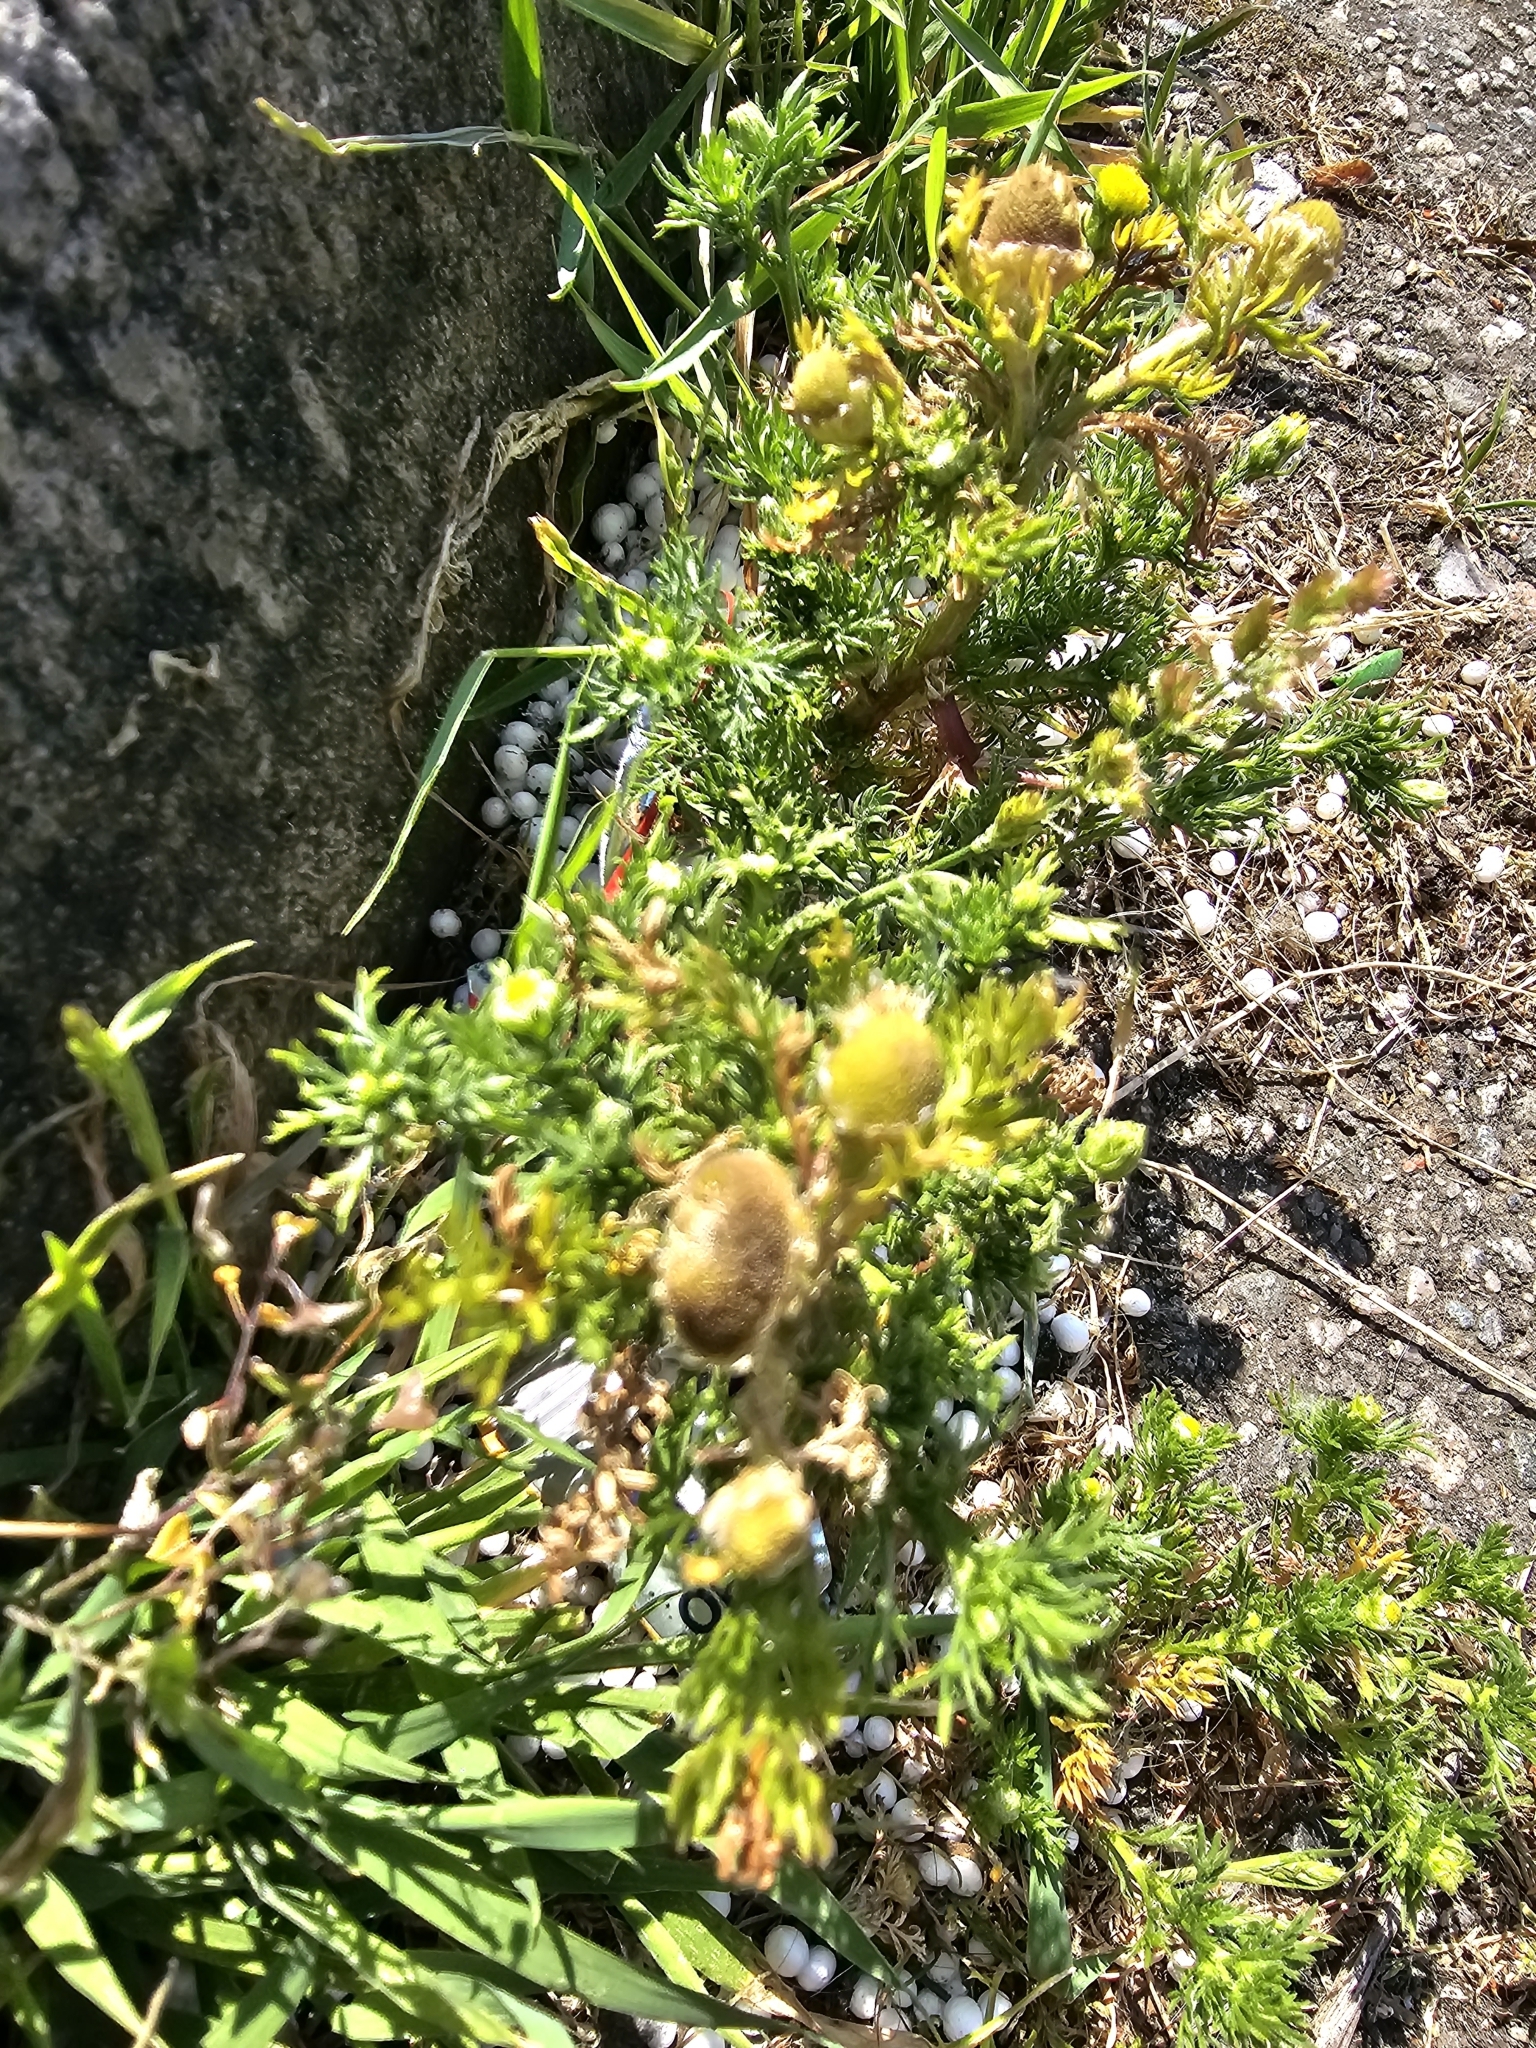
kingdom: Plantae
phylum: Tracheophyta
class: Magnoliopsida
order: Asterales
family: Asteraceae
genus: Matricaria
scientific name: Matricaria discoidea
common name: Disc mayweed
